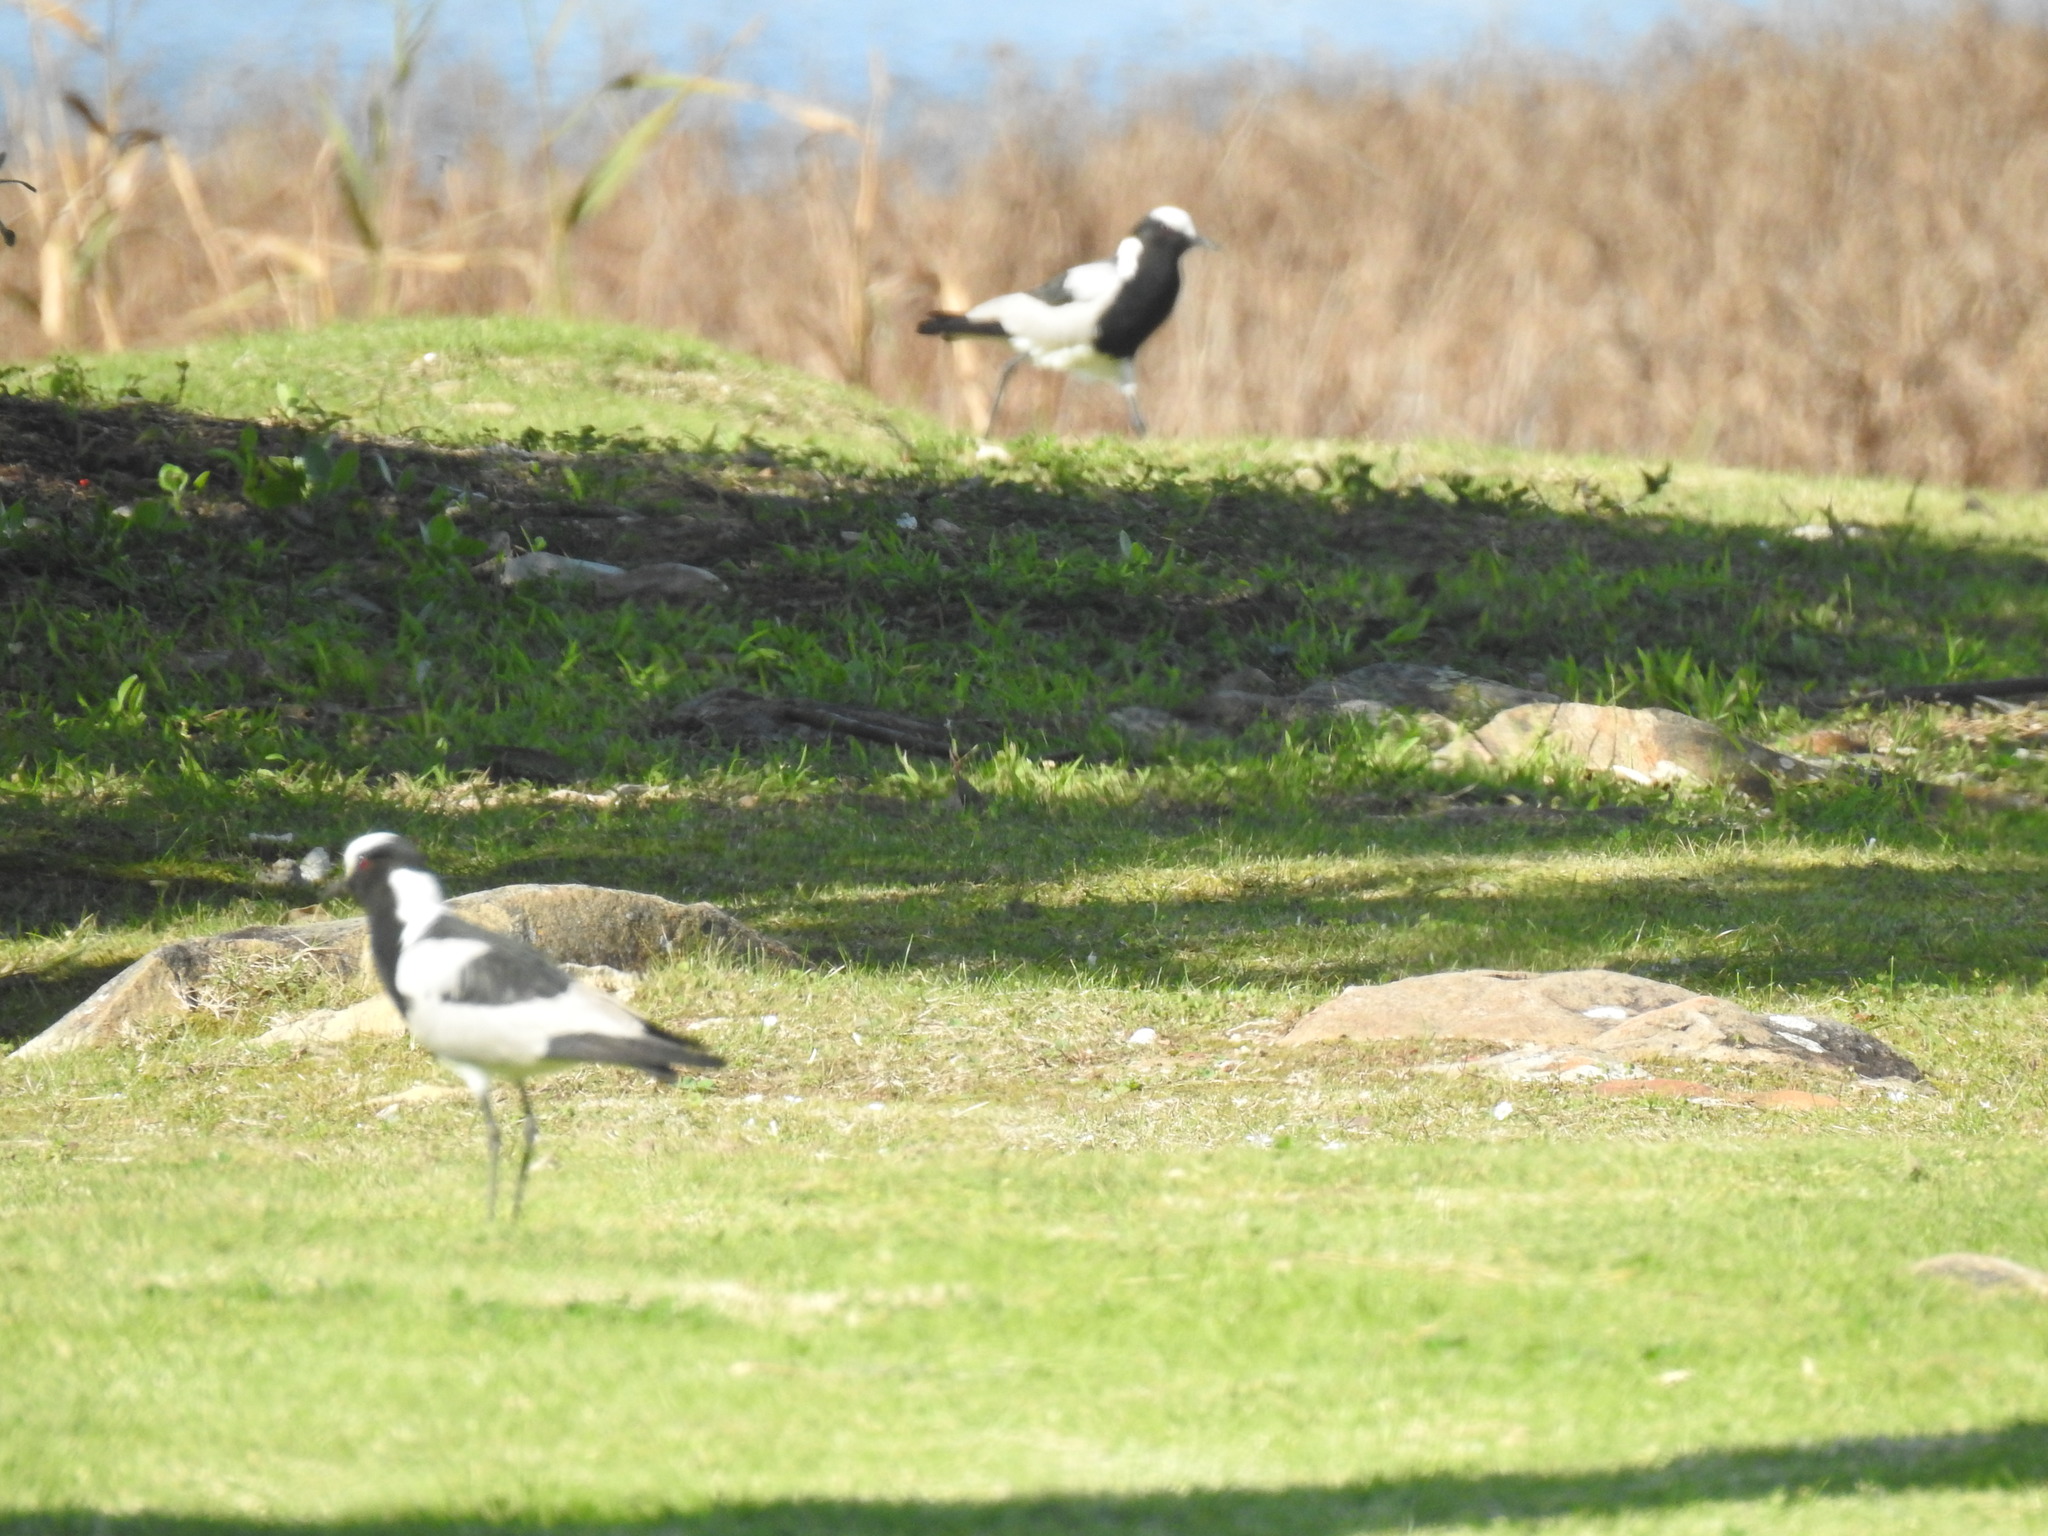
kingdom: Animalia
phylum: Chordata
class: Aves
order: Charadriiformes
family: Charadriidae
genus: Vanellus
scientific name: Vanellus armatus
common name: Blacksmith lapwing
